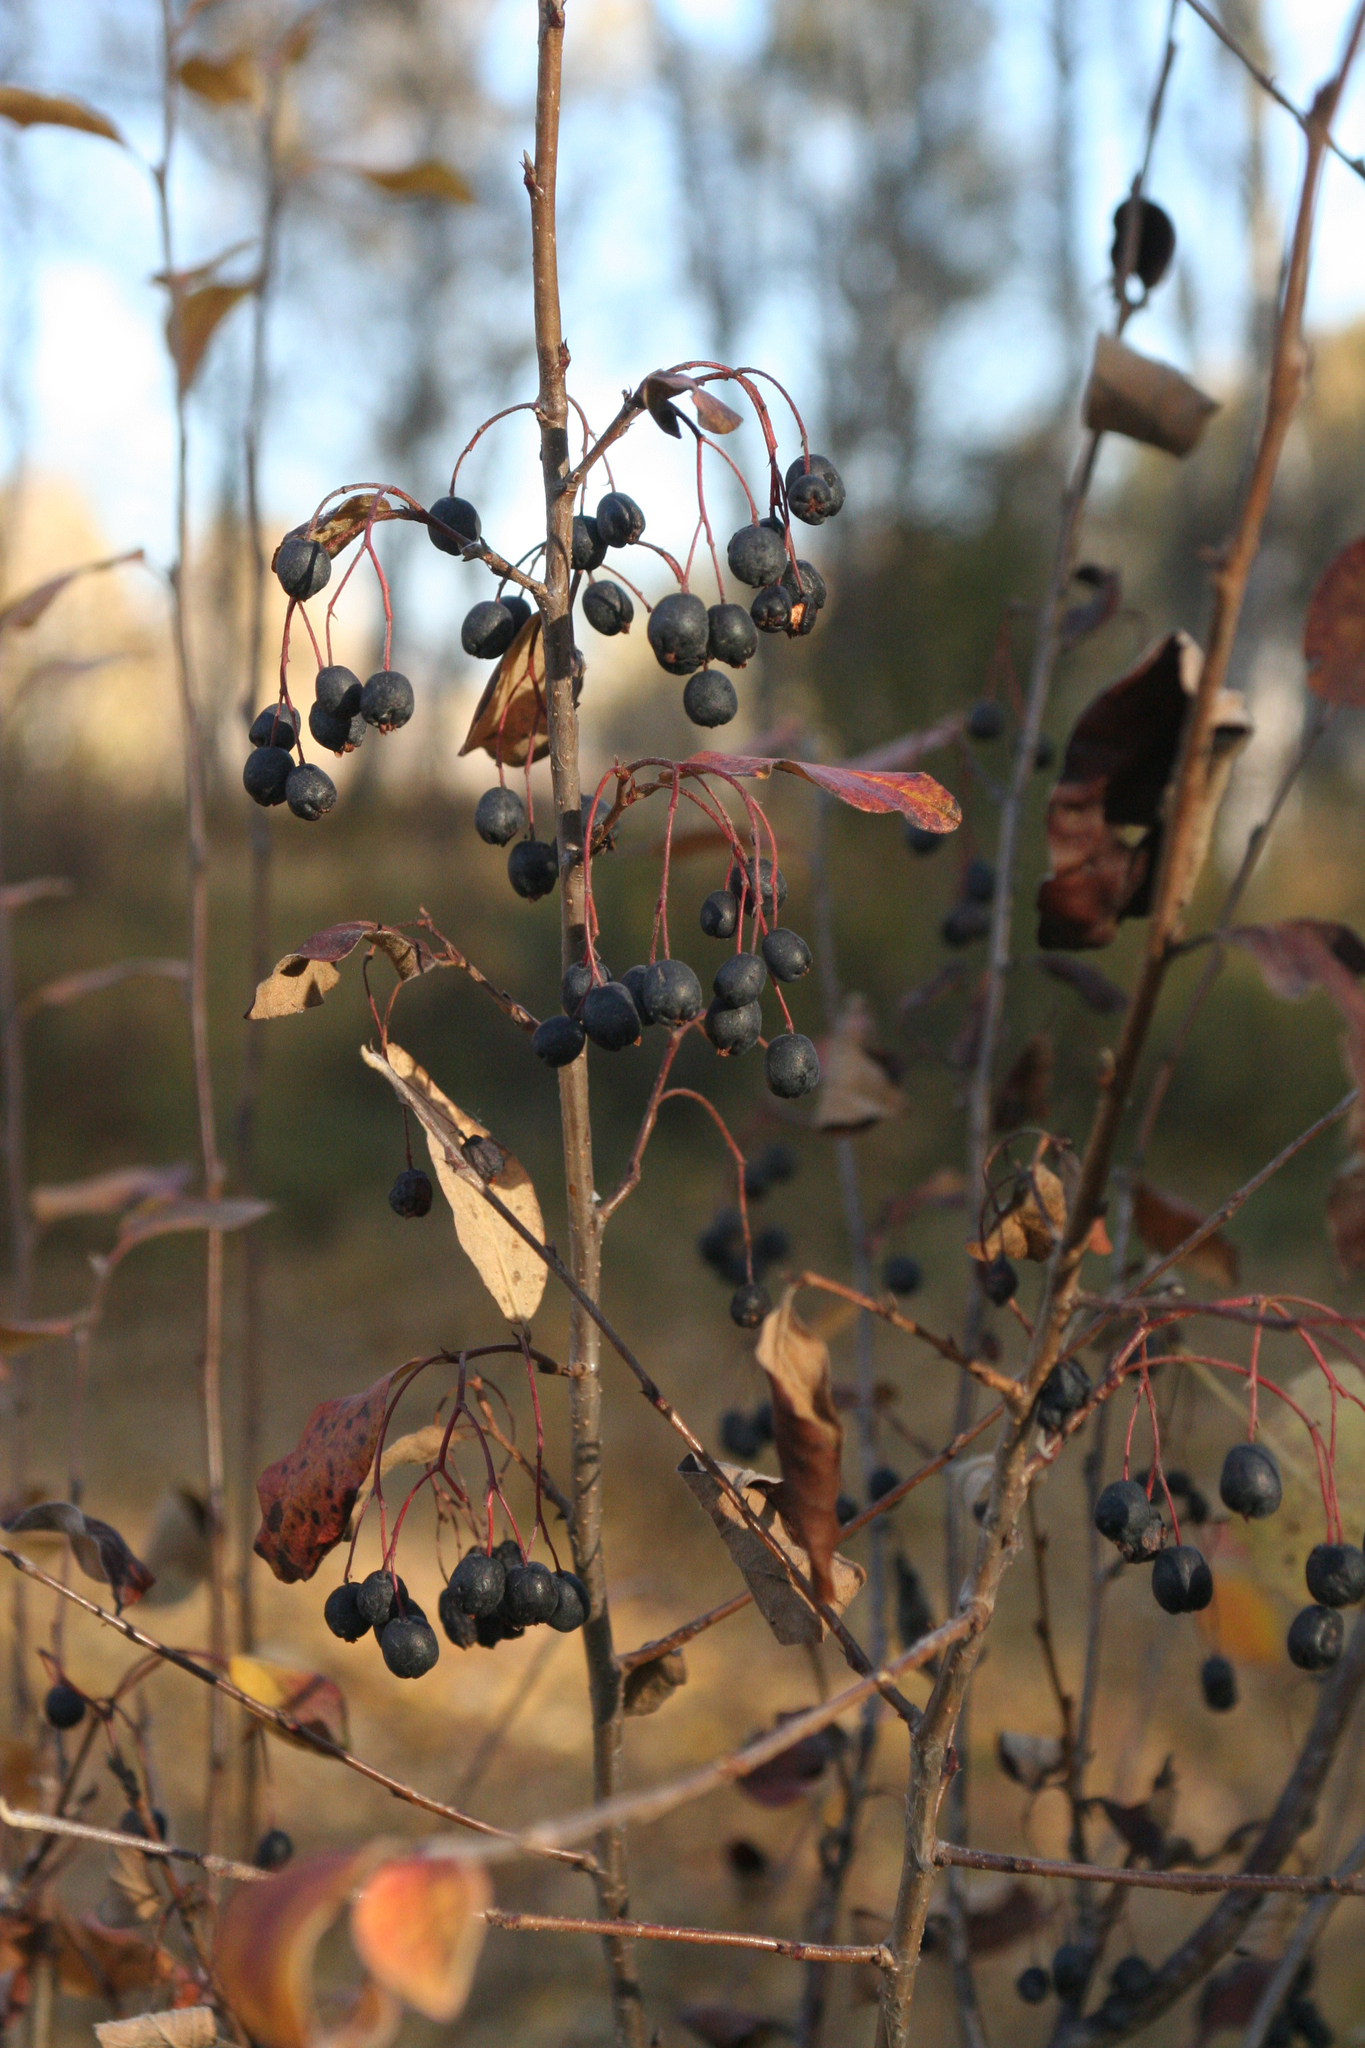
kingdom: Plantae
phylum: Tracheophyta
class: Magnoliopsida
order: Rosales
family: Rosaceae
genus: Cotoneaster
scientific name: Cotoneaster melanocarpus
